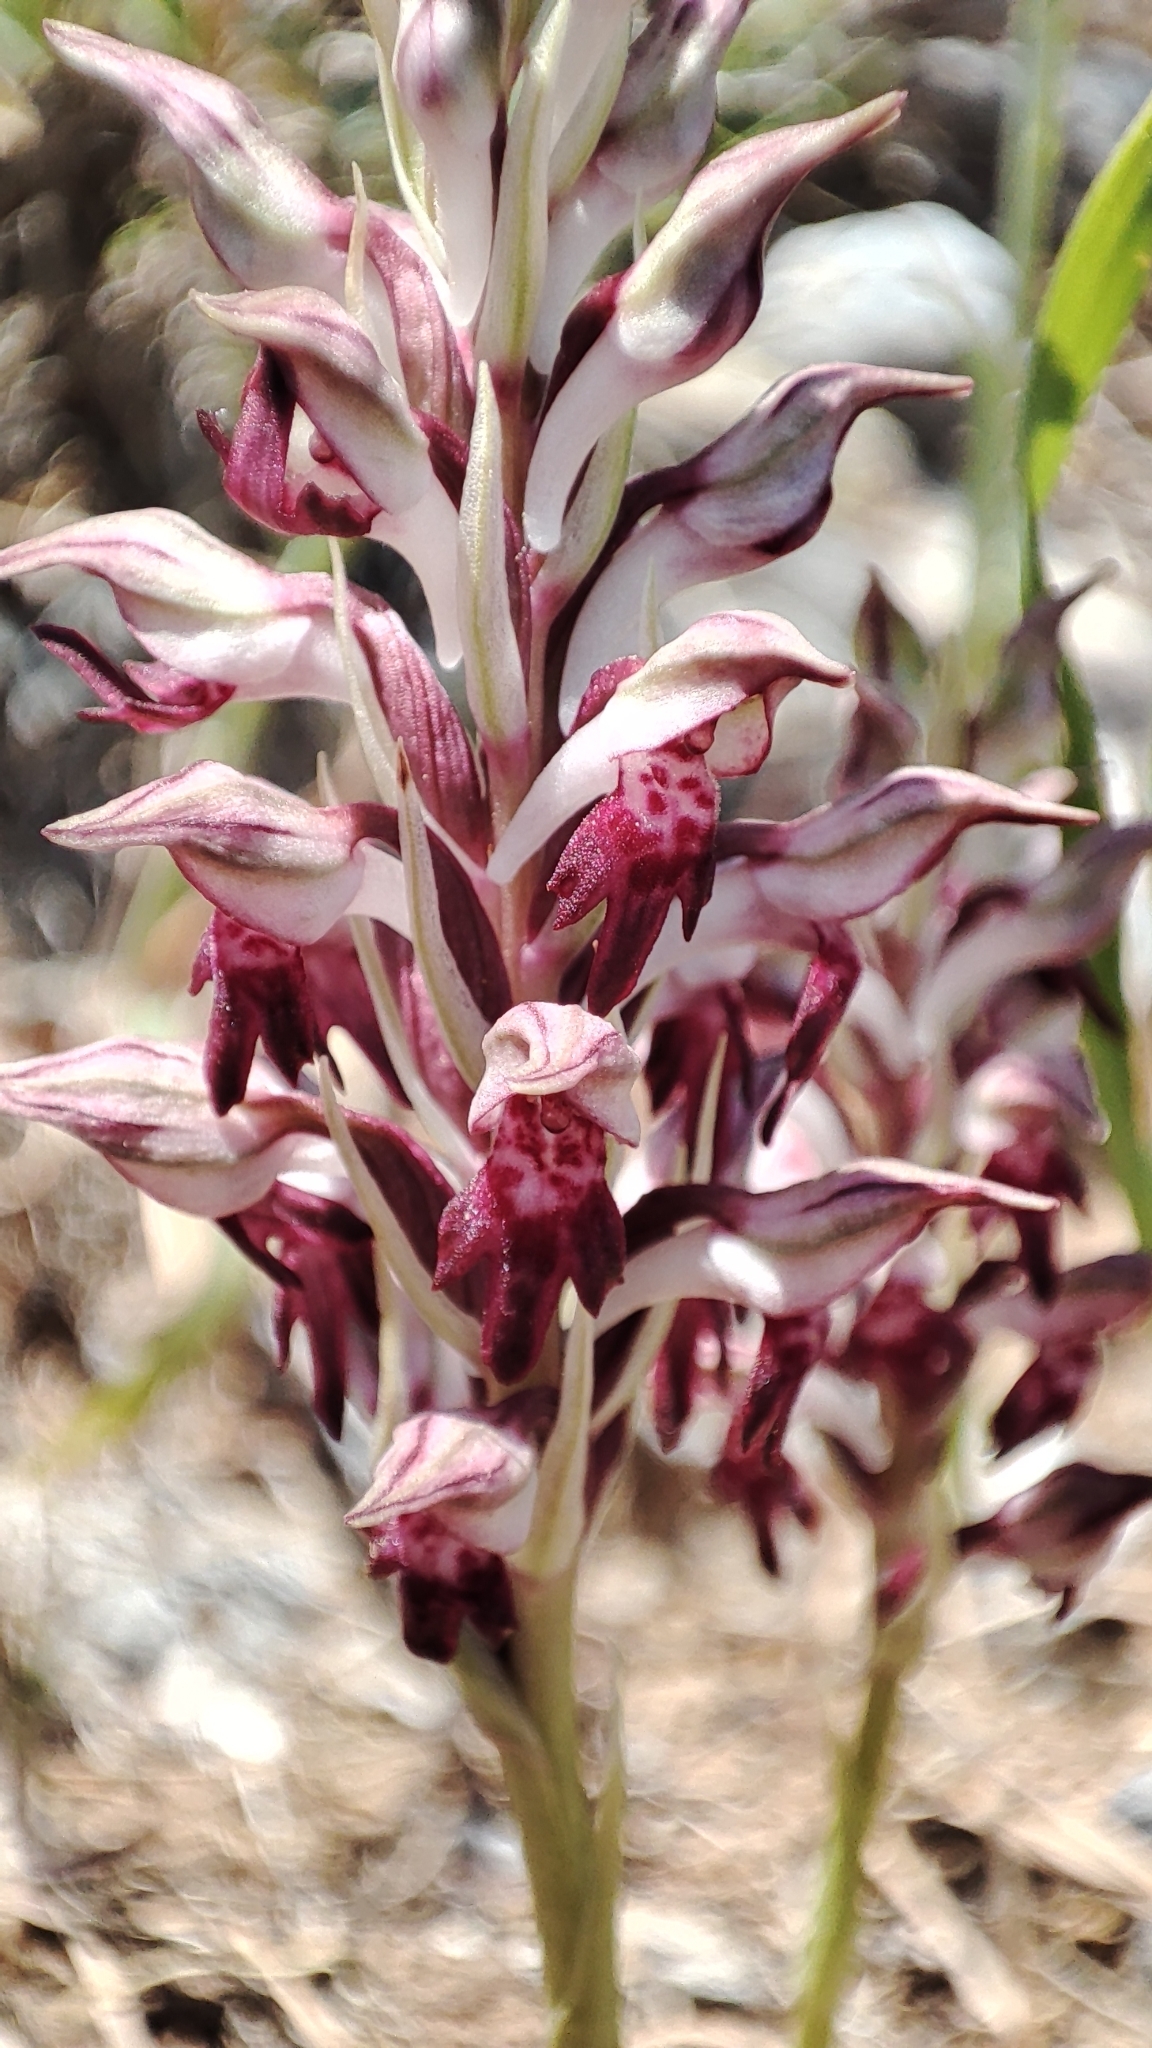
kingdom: Plantae
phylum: Tracheophyta
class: Liliopsida
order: Asparagales
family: Orchidaceae
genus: Anacamptis
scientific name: Anacamptis coriophora
